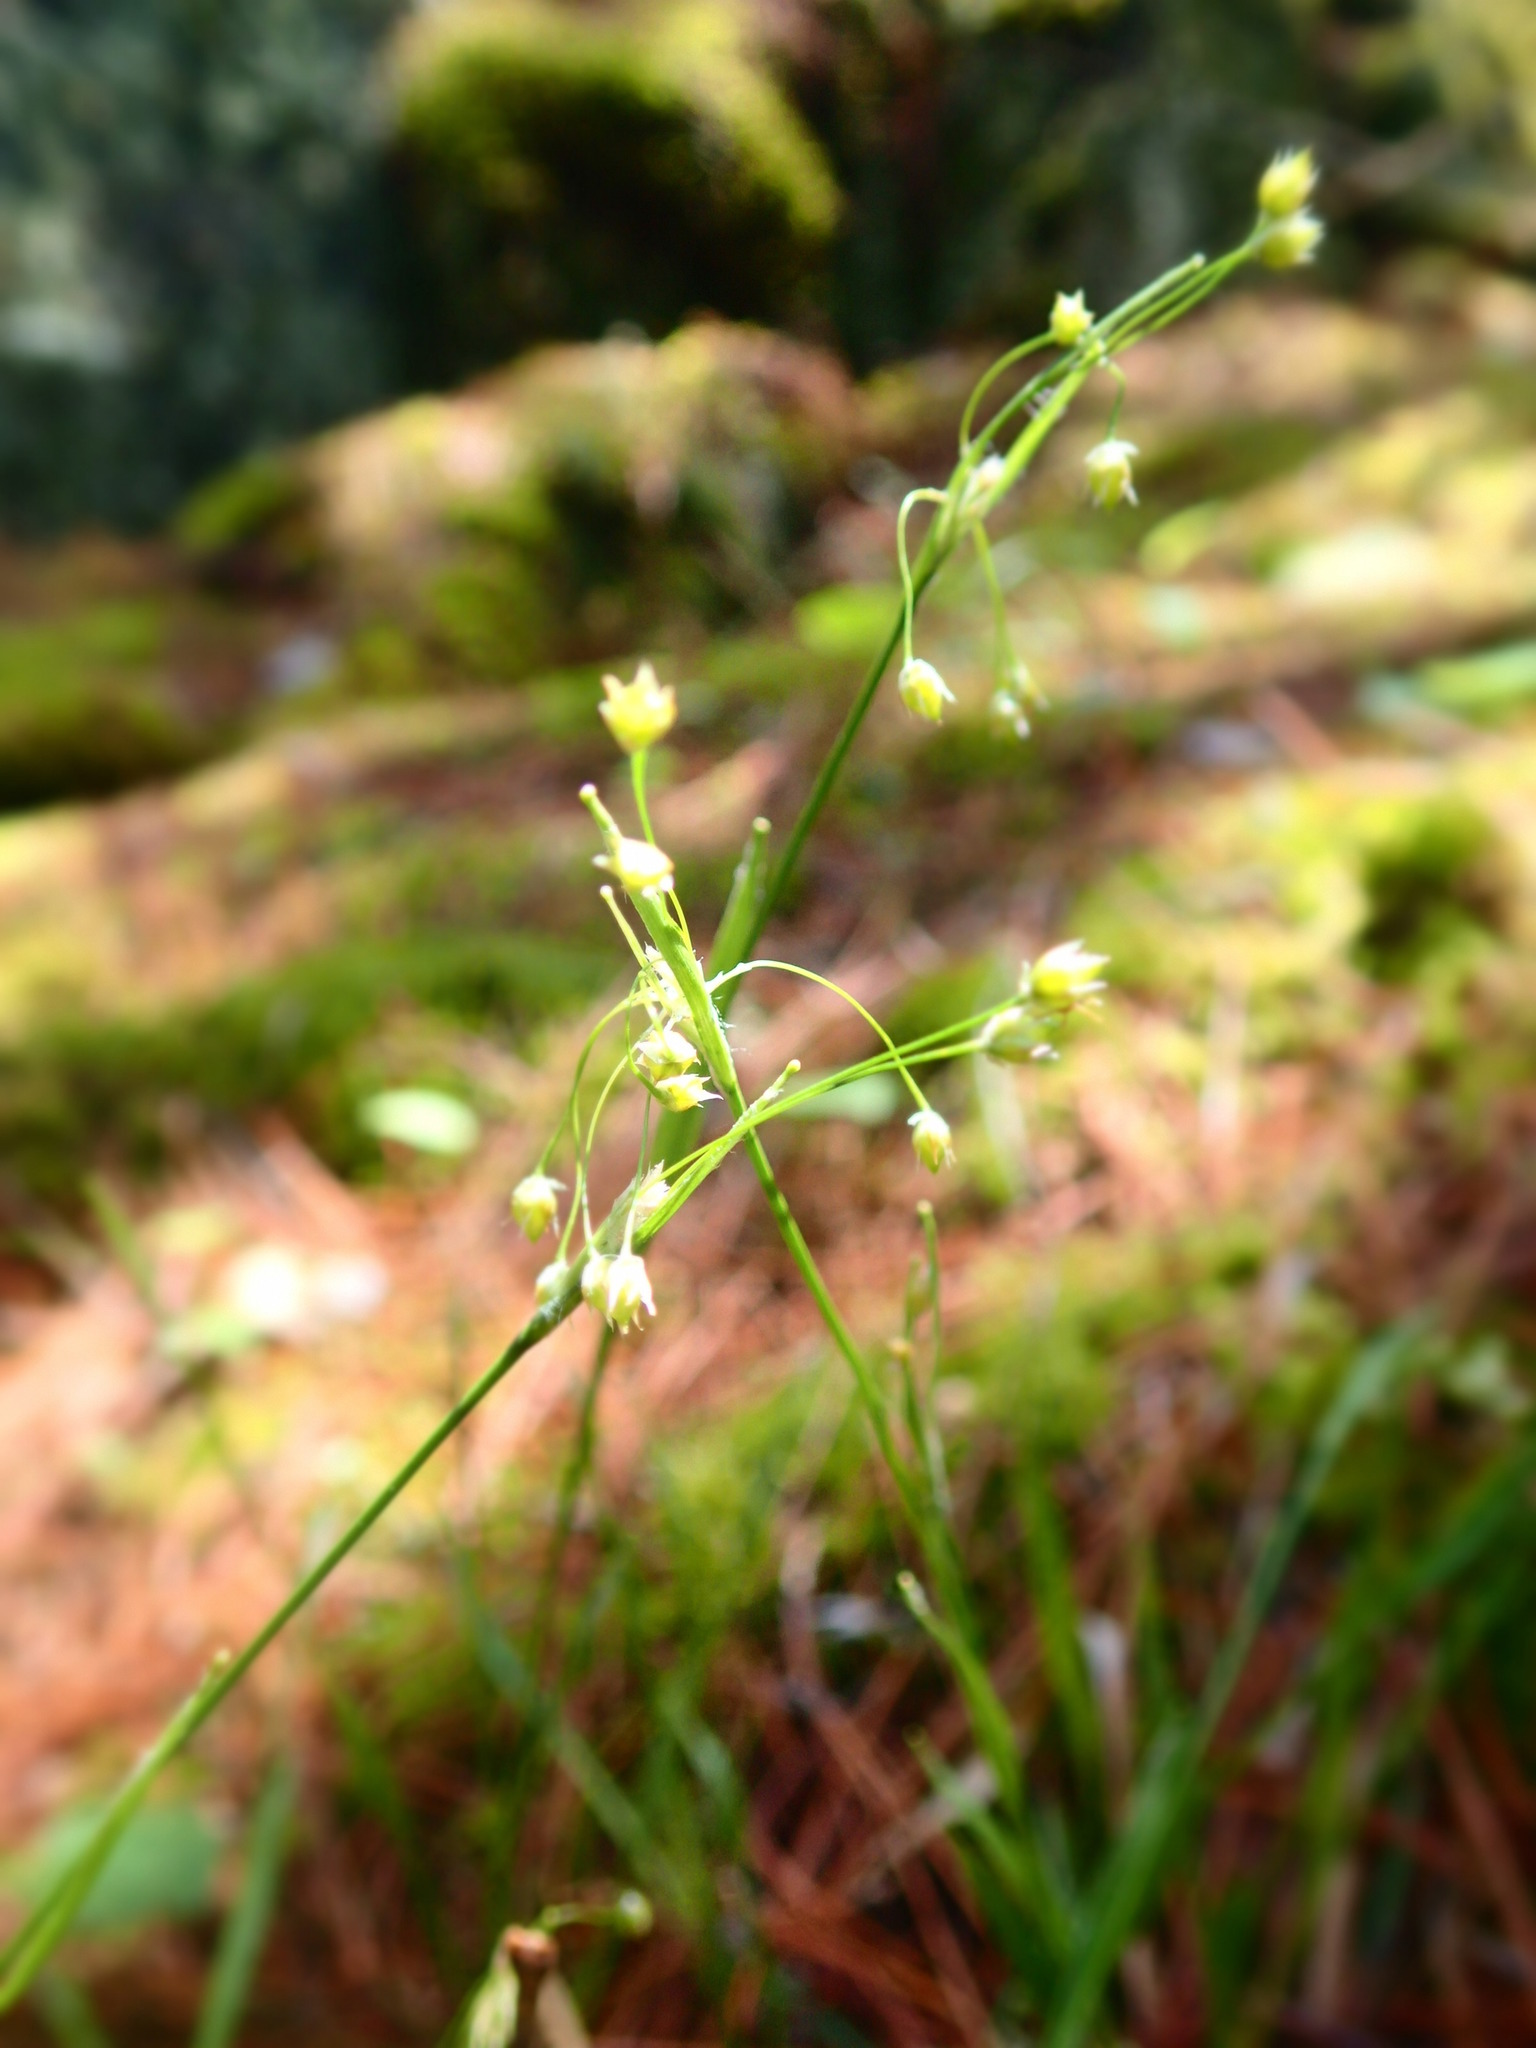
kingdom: Plantae
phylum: Tracheophyta
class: Liliopsida
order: Poales
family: Juncaceae
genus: Luzula
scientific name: Luzula acuminata
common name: Hairy woodrush
